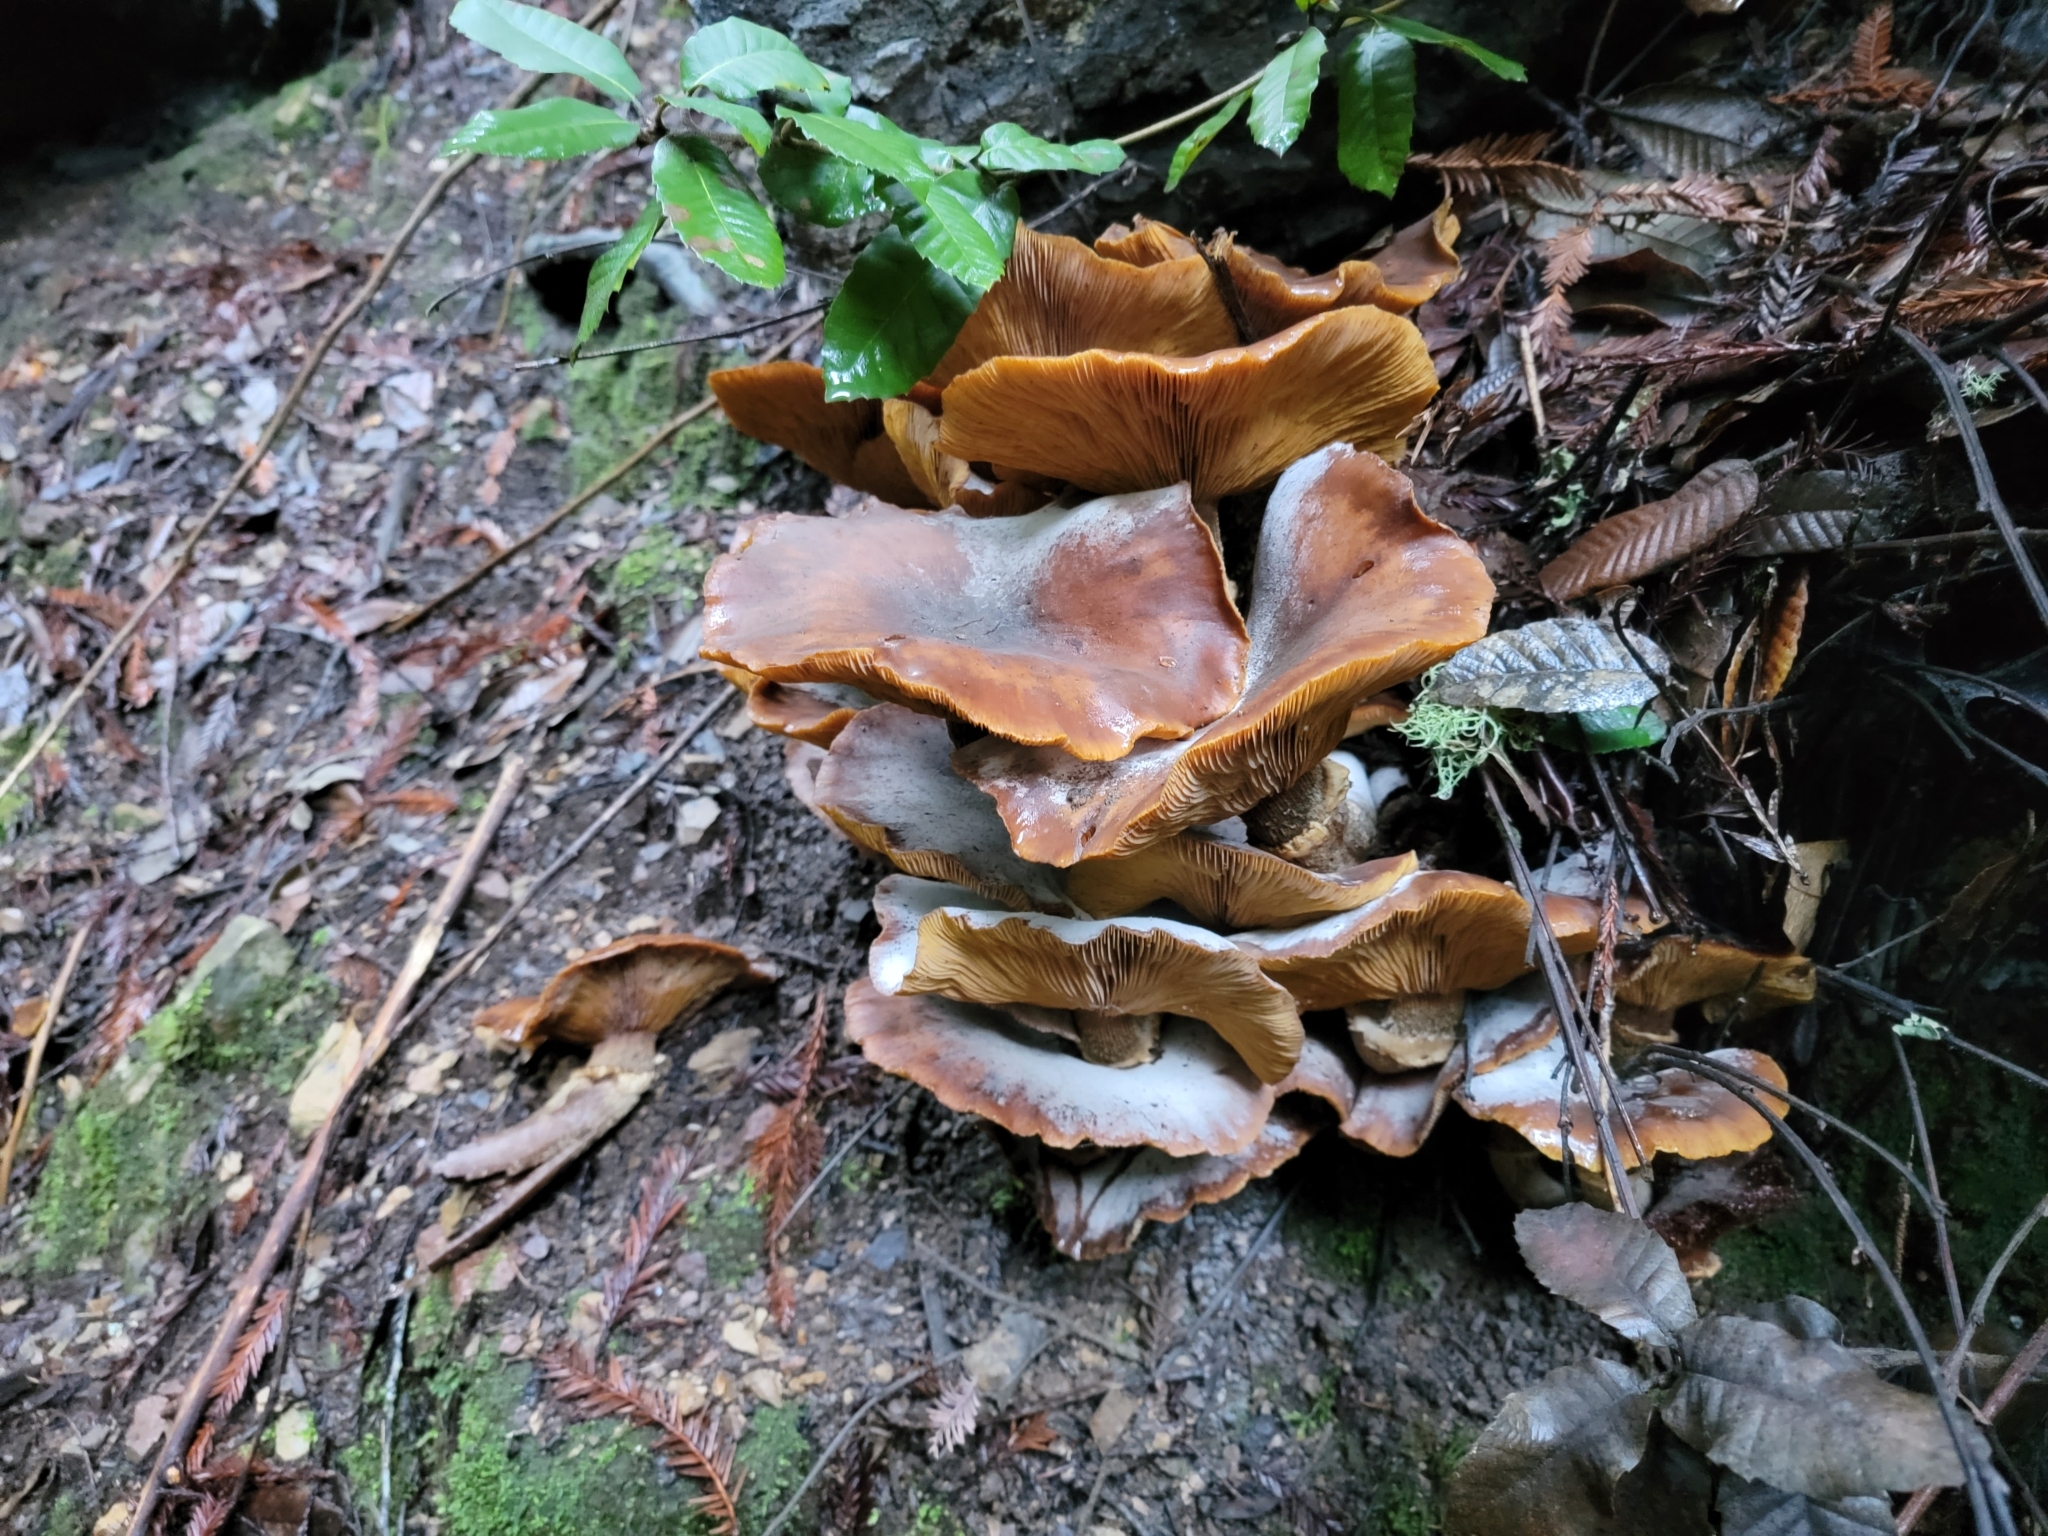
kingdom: Fungi
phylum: Basidiomycota
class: Agaricomycetes
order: Agaricales
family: Physalacriaceae
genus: Armillaria
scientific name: Armillaria mellea
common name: Honey fungus
